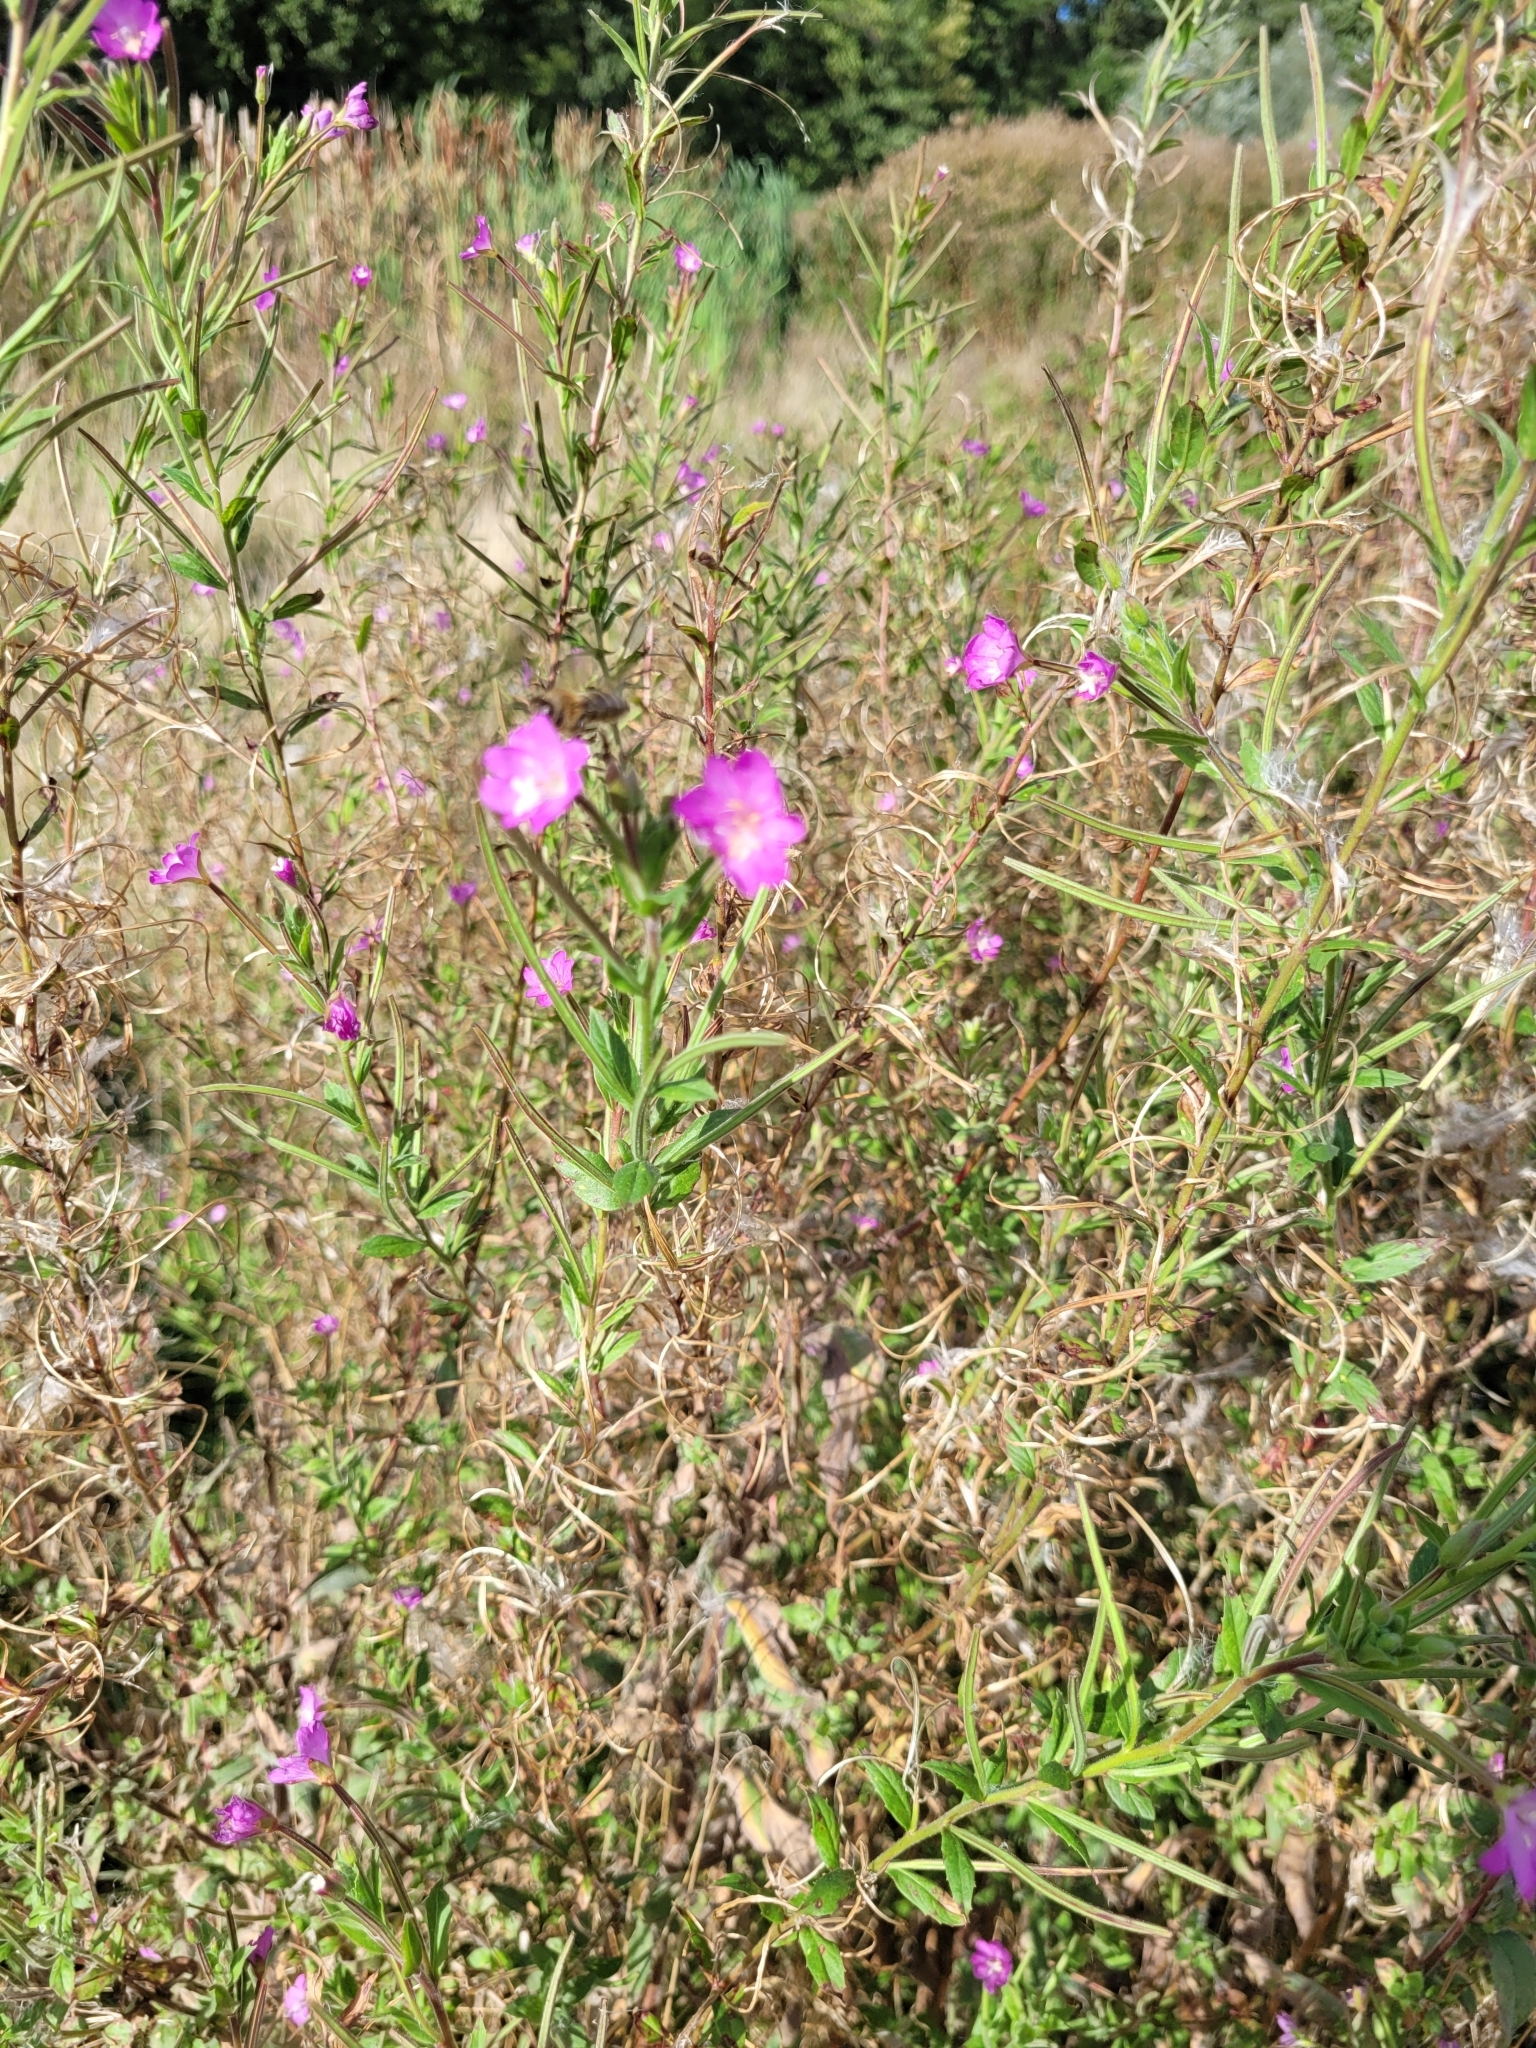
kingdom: Plantae
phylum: Tracheophyta
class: Magnoliopsida
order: Myrtales
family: Onagraceae
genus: Epilobium
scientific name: Epilobium hirsutum
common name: Great willowherb
